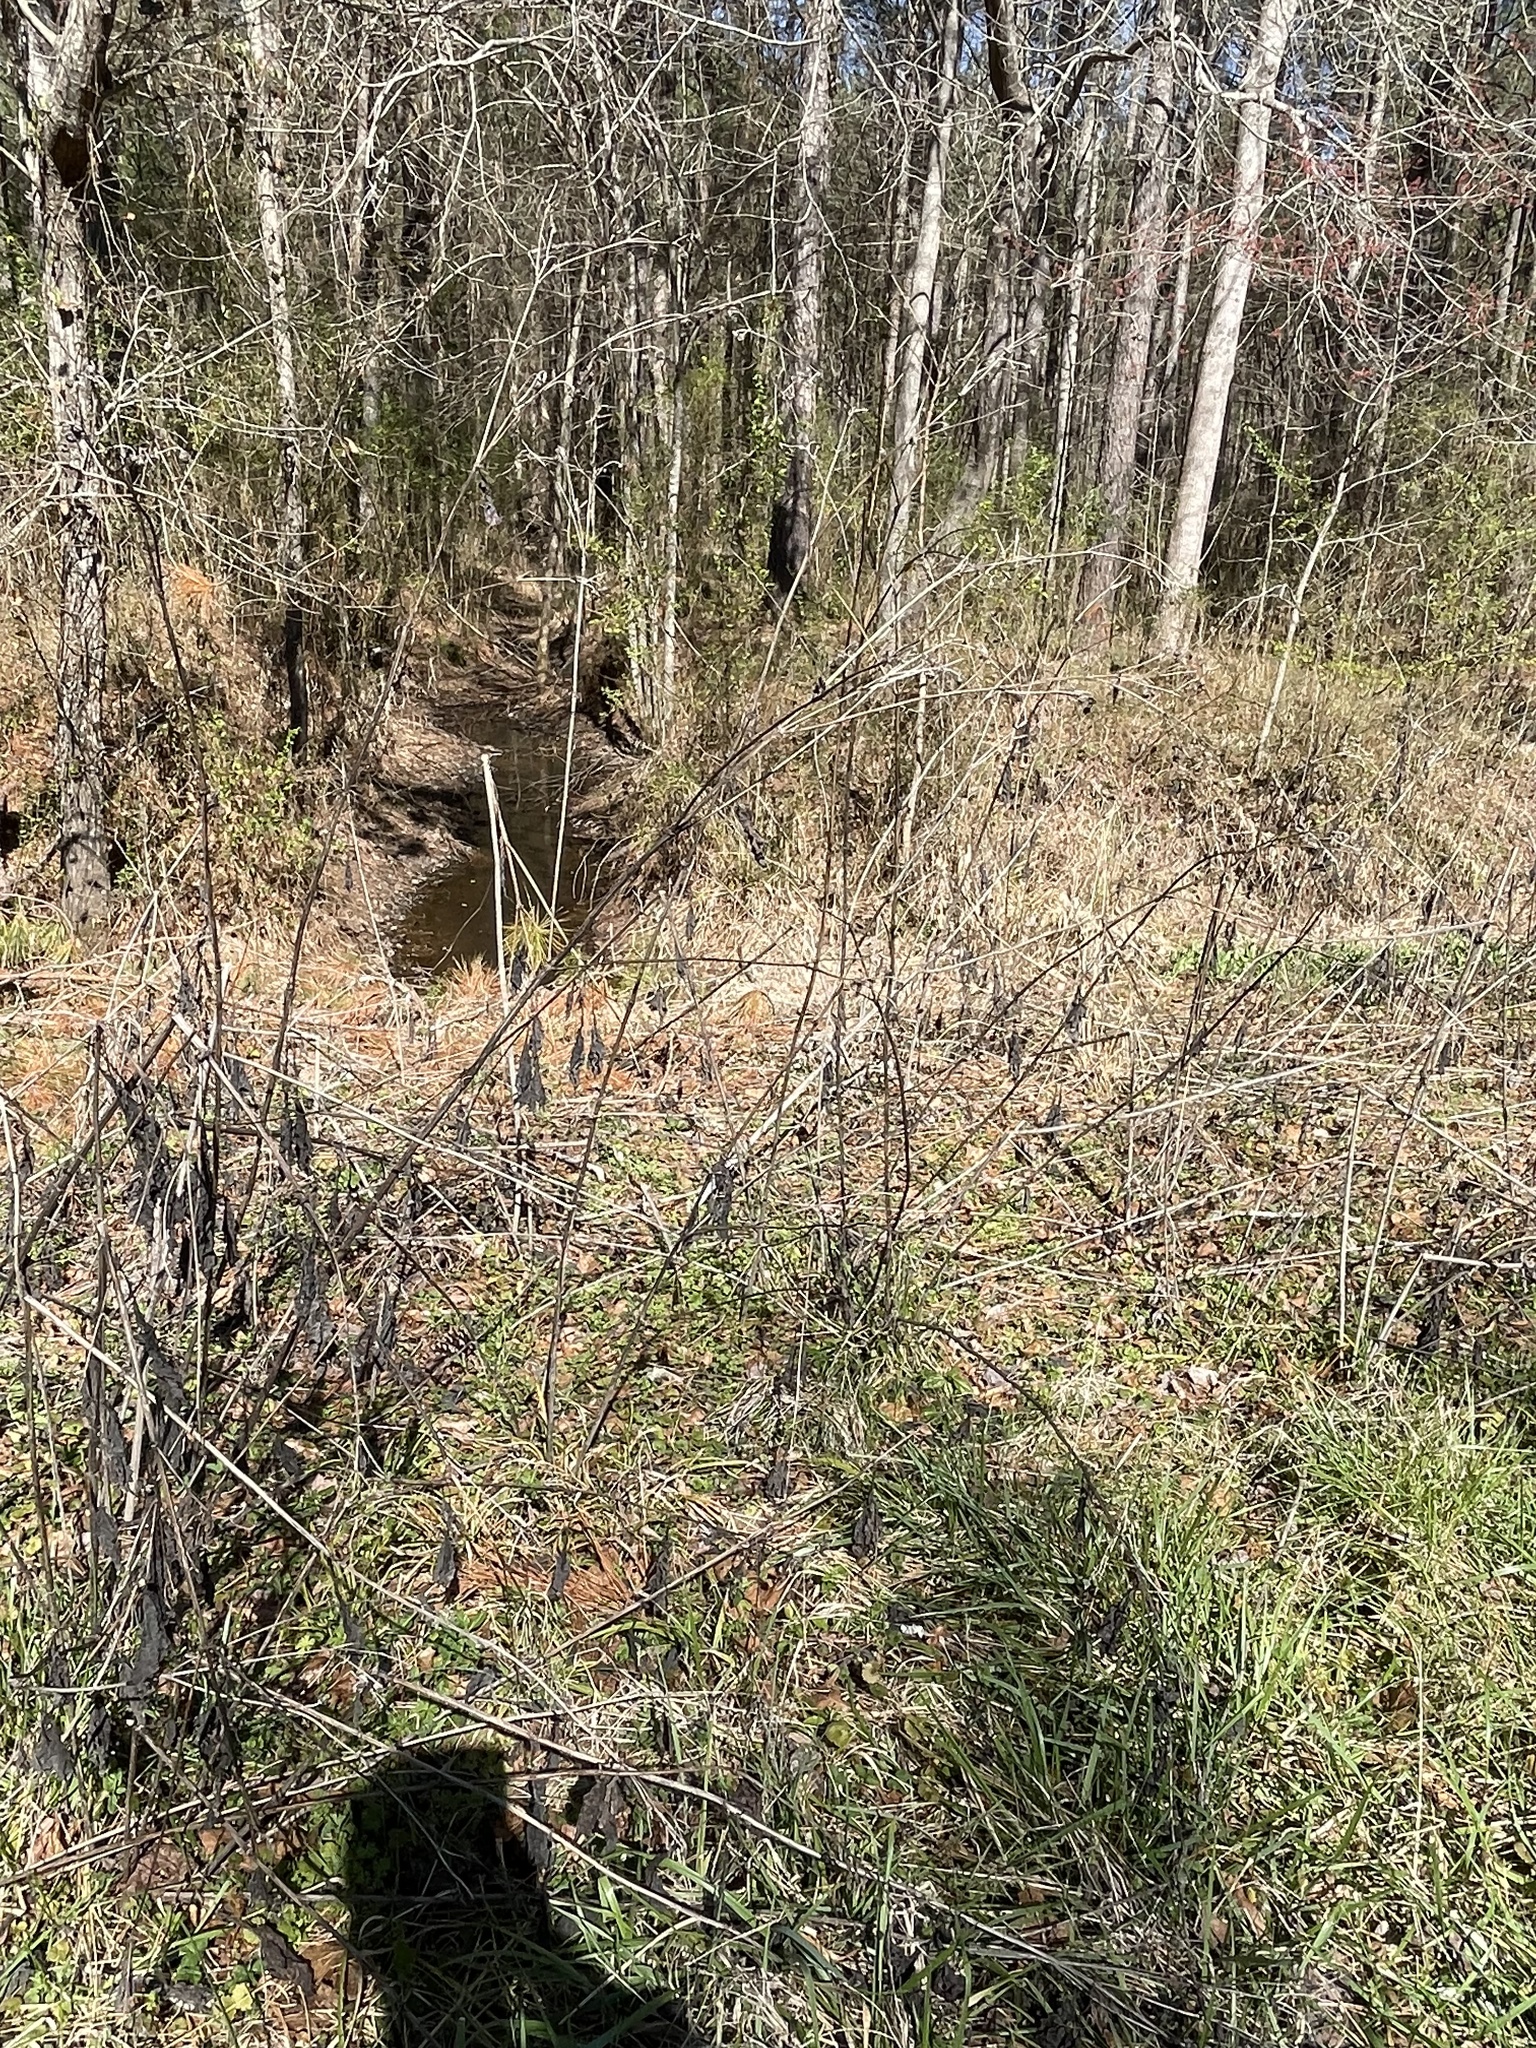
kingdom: Plantae
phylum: Tracheophyta
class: Magnoliopsida
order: Asterales
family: Asteraceae
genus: Smallanthus
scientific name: Smallanthus uvedalia
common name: Bear's-foot
